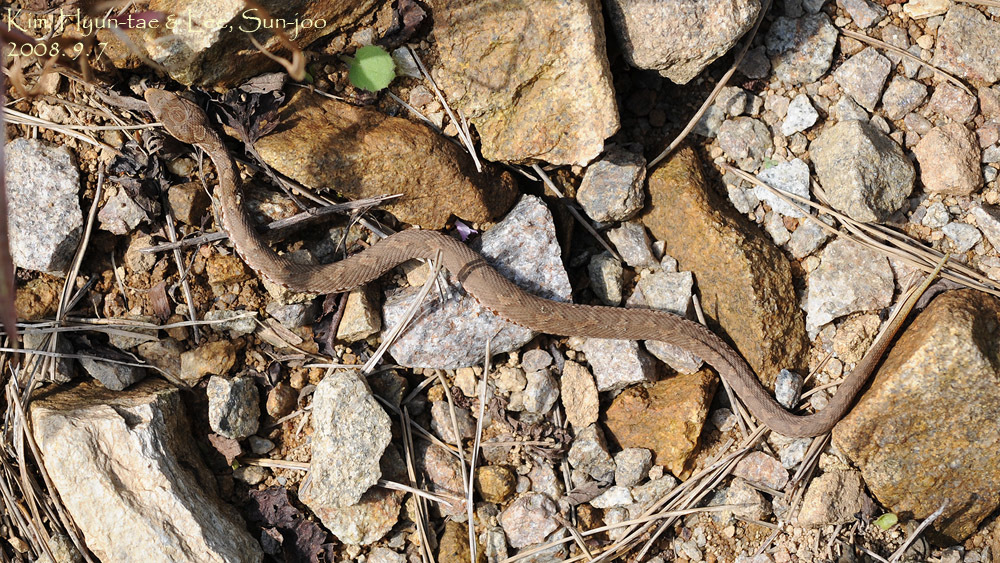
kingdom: Animalia
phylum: Chordata
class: Squamata
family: Viperidae
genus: Gloydius
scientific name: Gloydius ussuriensis
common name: Ussuri mamushi
